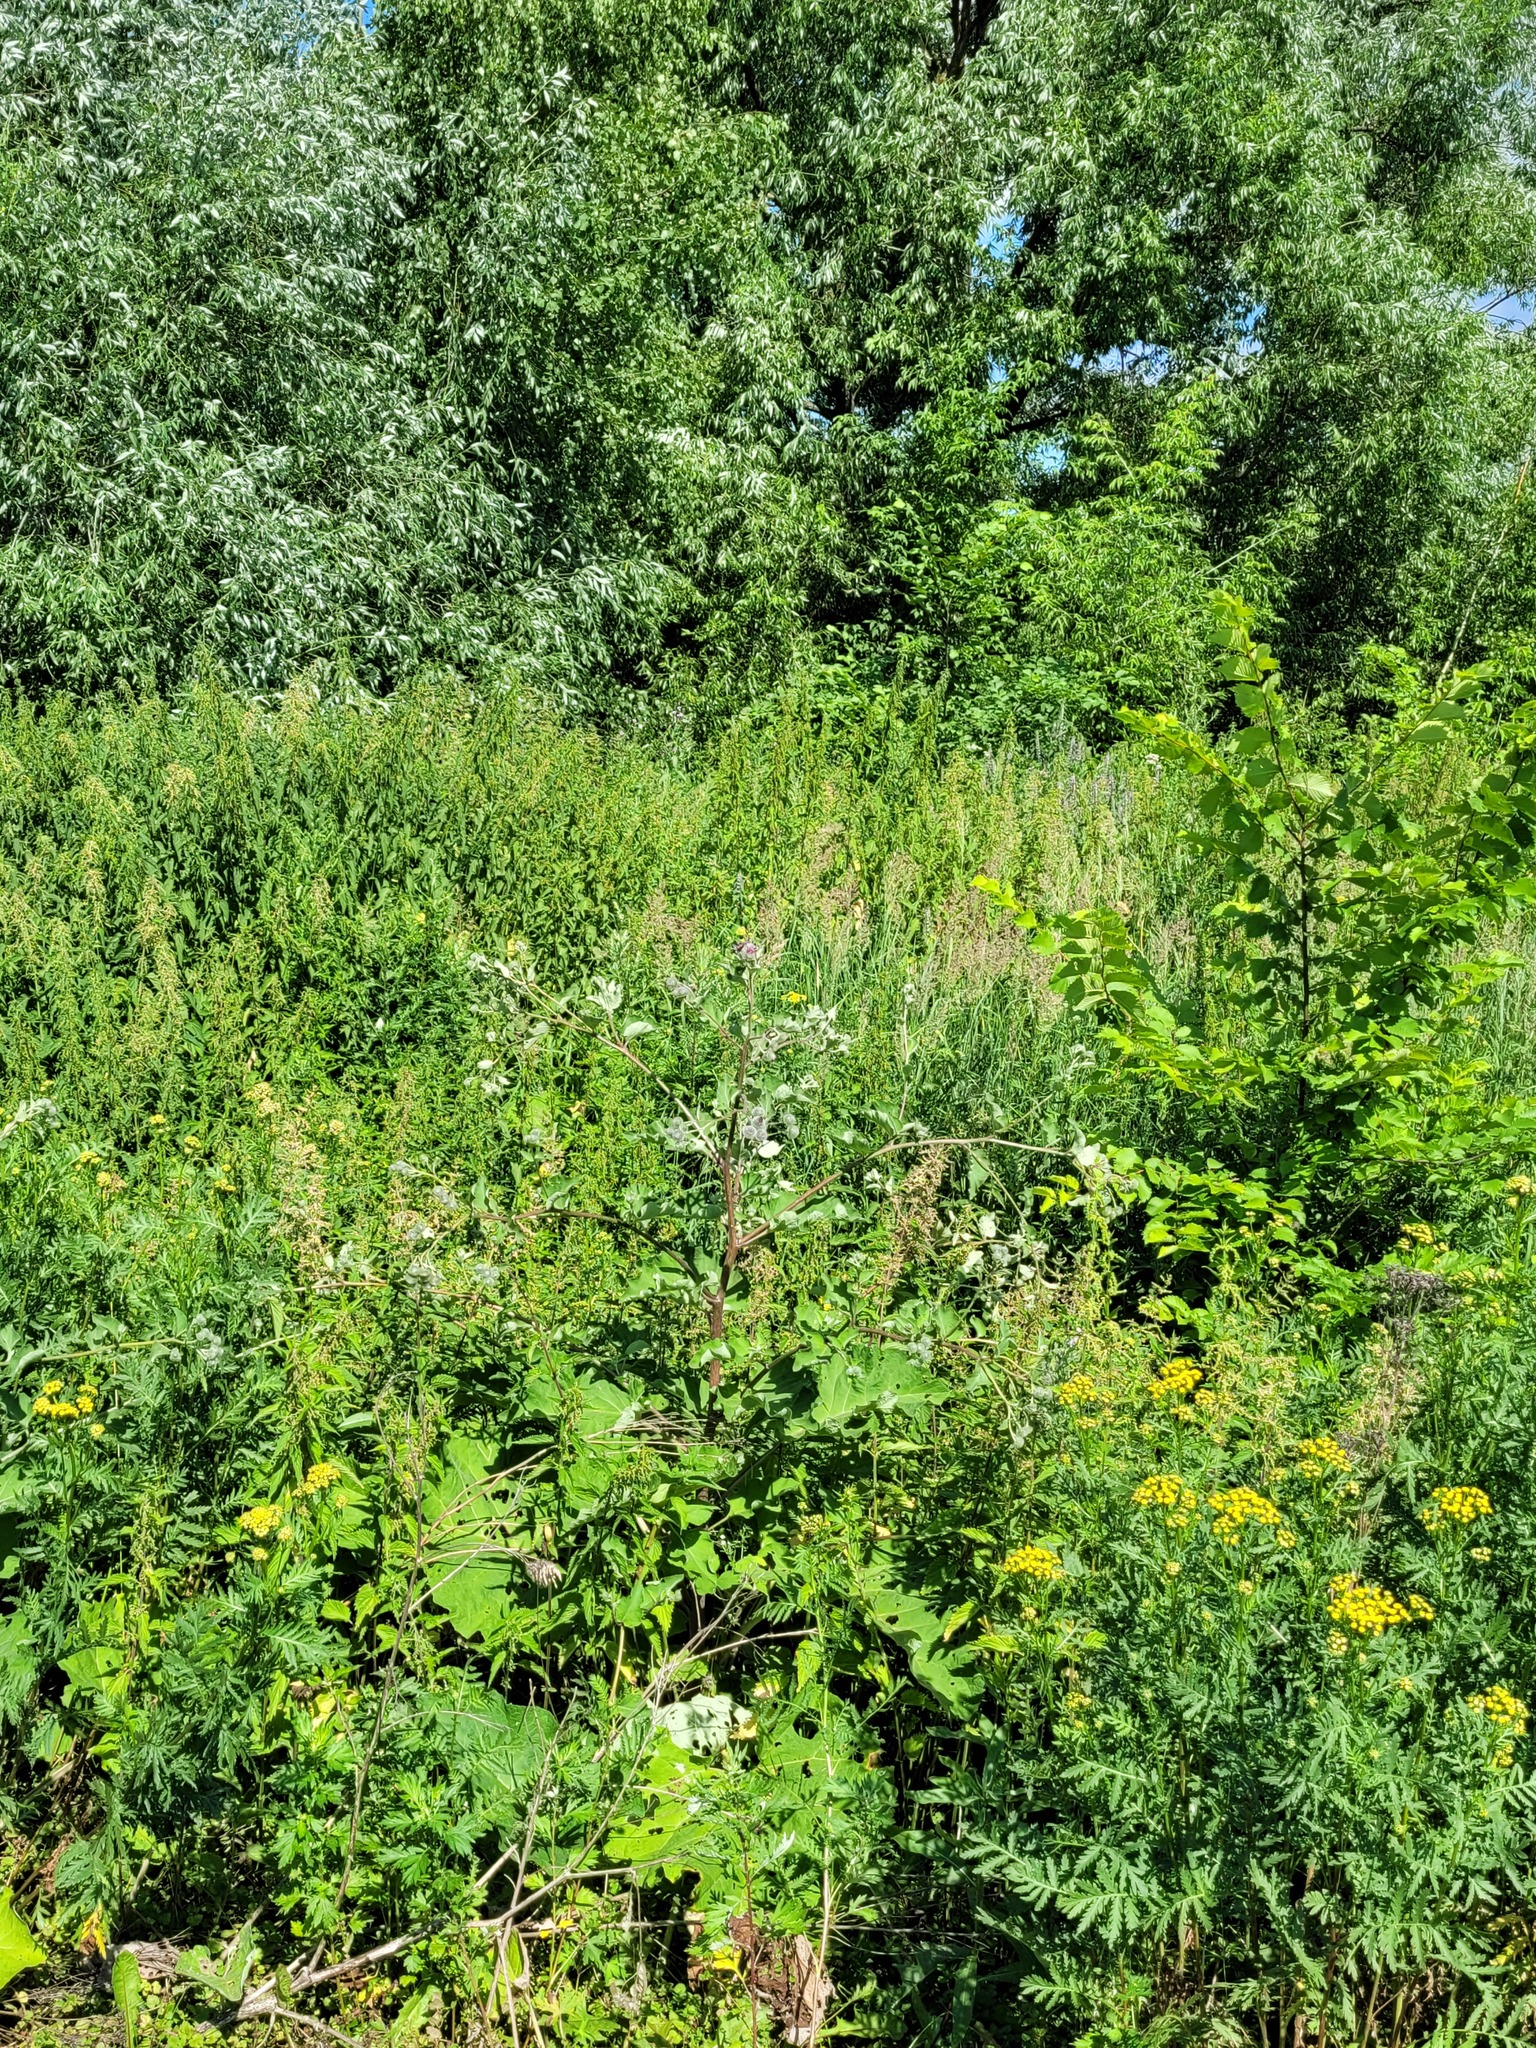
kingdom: Plantae
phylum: Tracheophyta
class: Magnoliopsida
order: Asterales
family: Asteraceae
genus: Arctium
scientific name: Arctium tomentosum
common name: Woolly burdock
